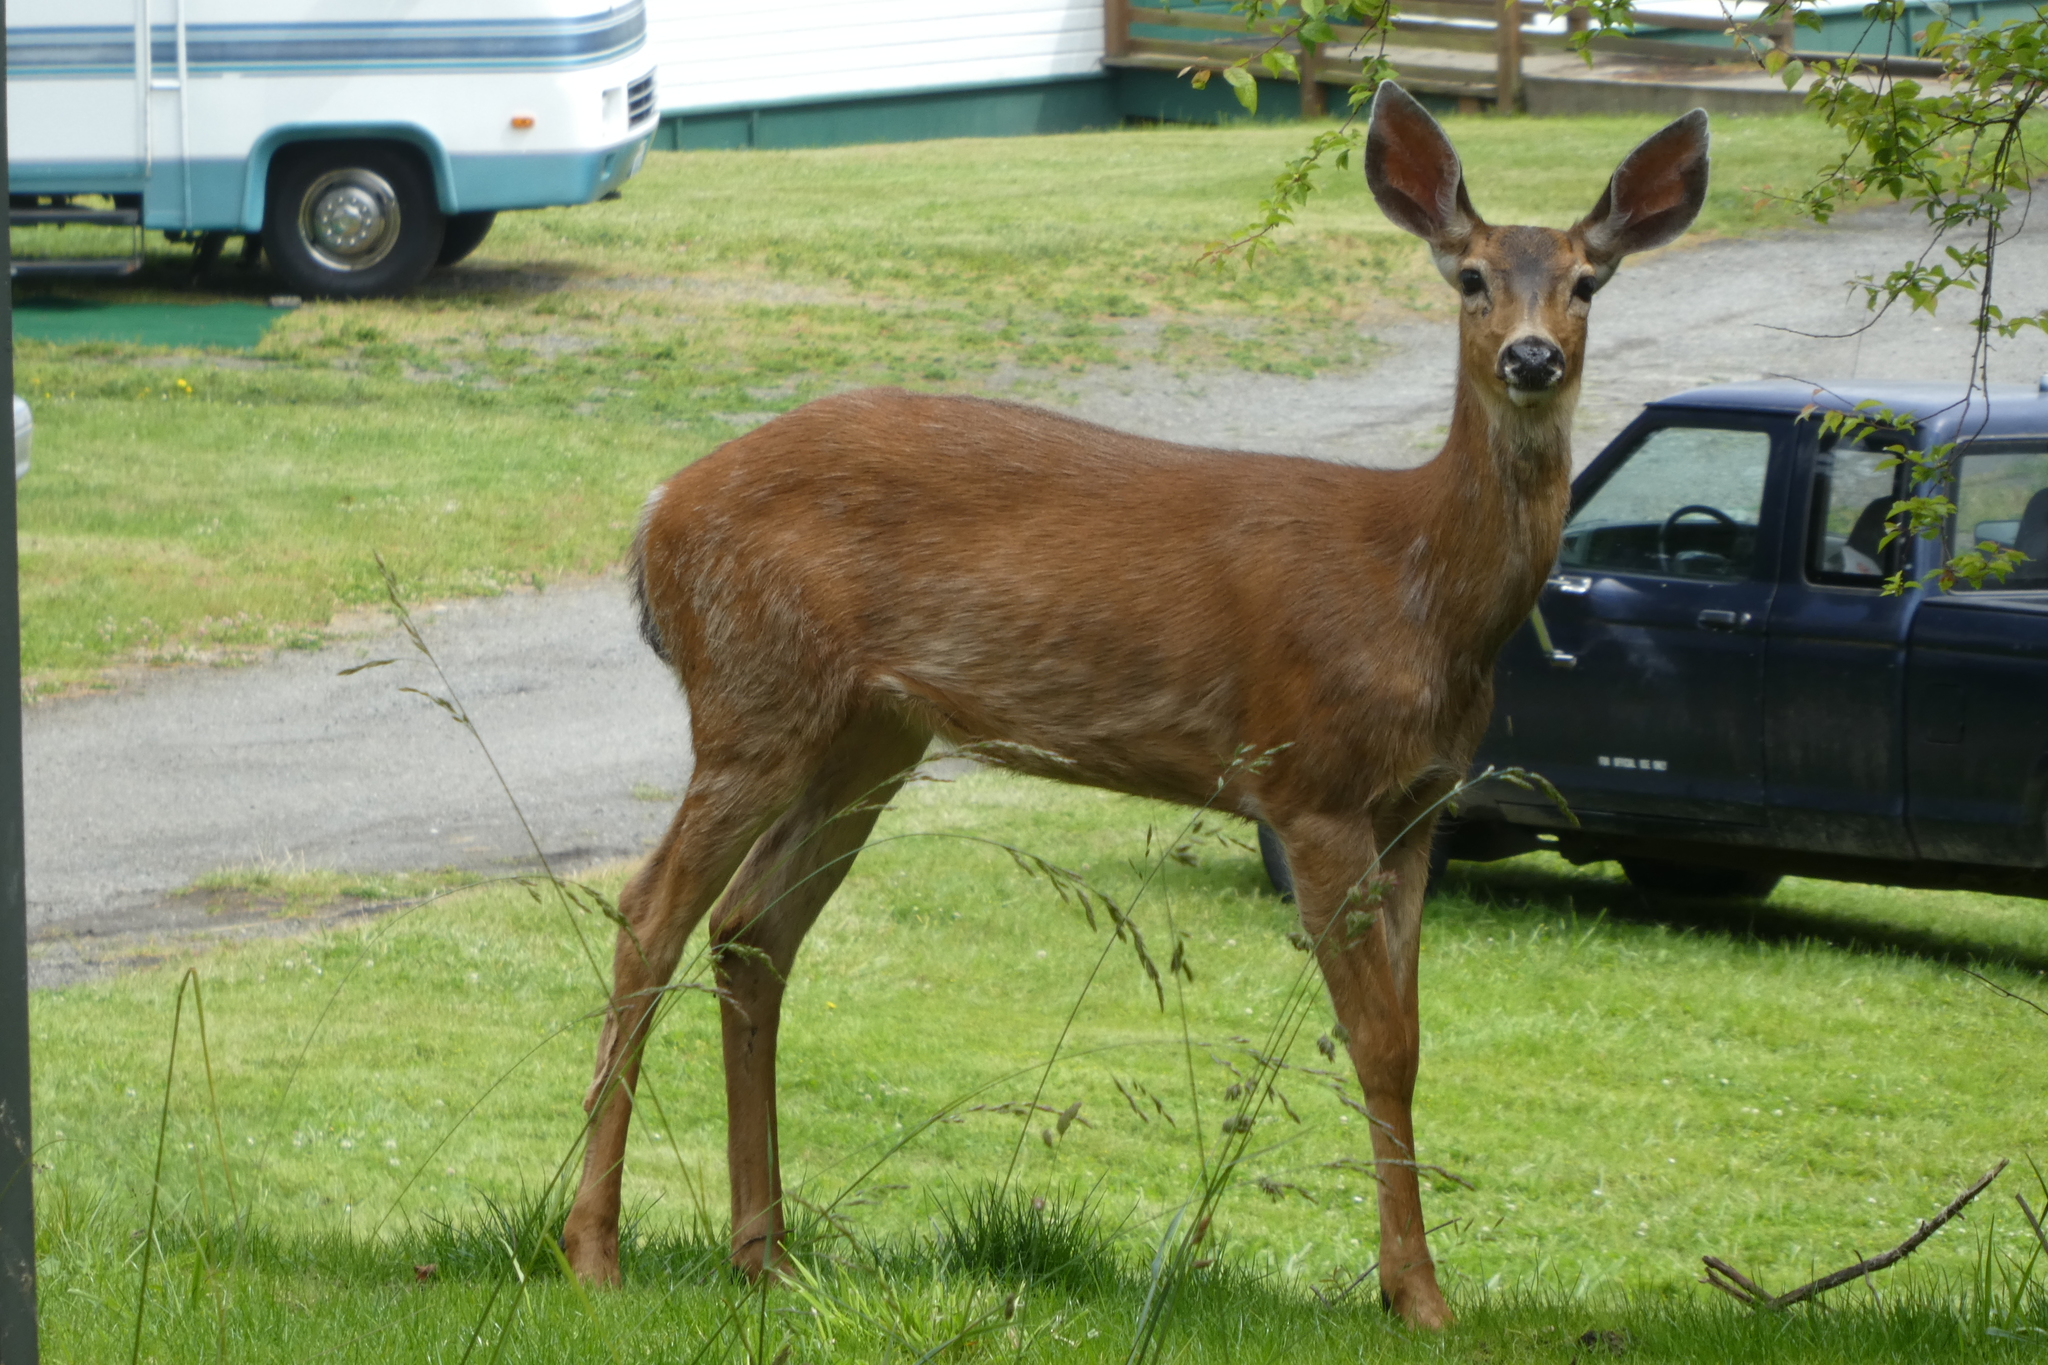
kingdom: Animalia
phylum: Chordata
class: Mammalia
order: Artiodactyla
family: Cervidae
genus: Odocoileus
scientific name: Odocoileus hemionus
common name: Mule deer
